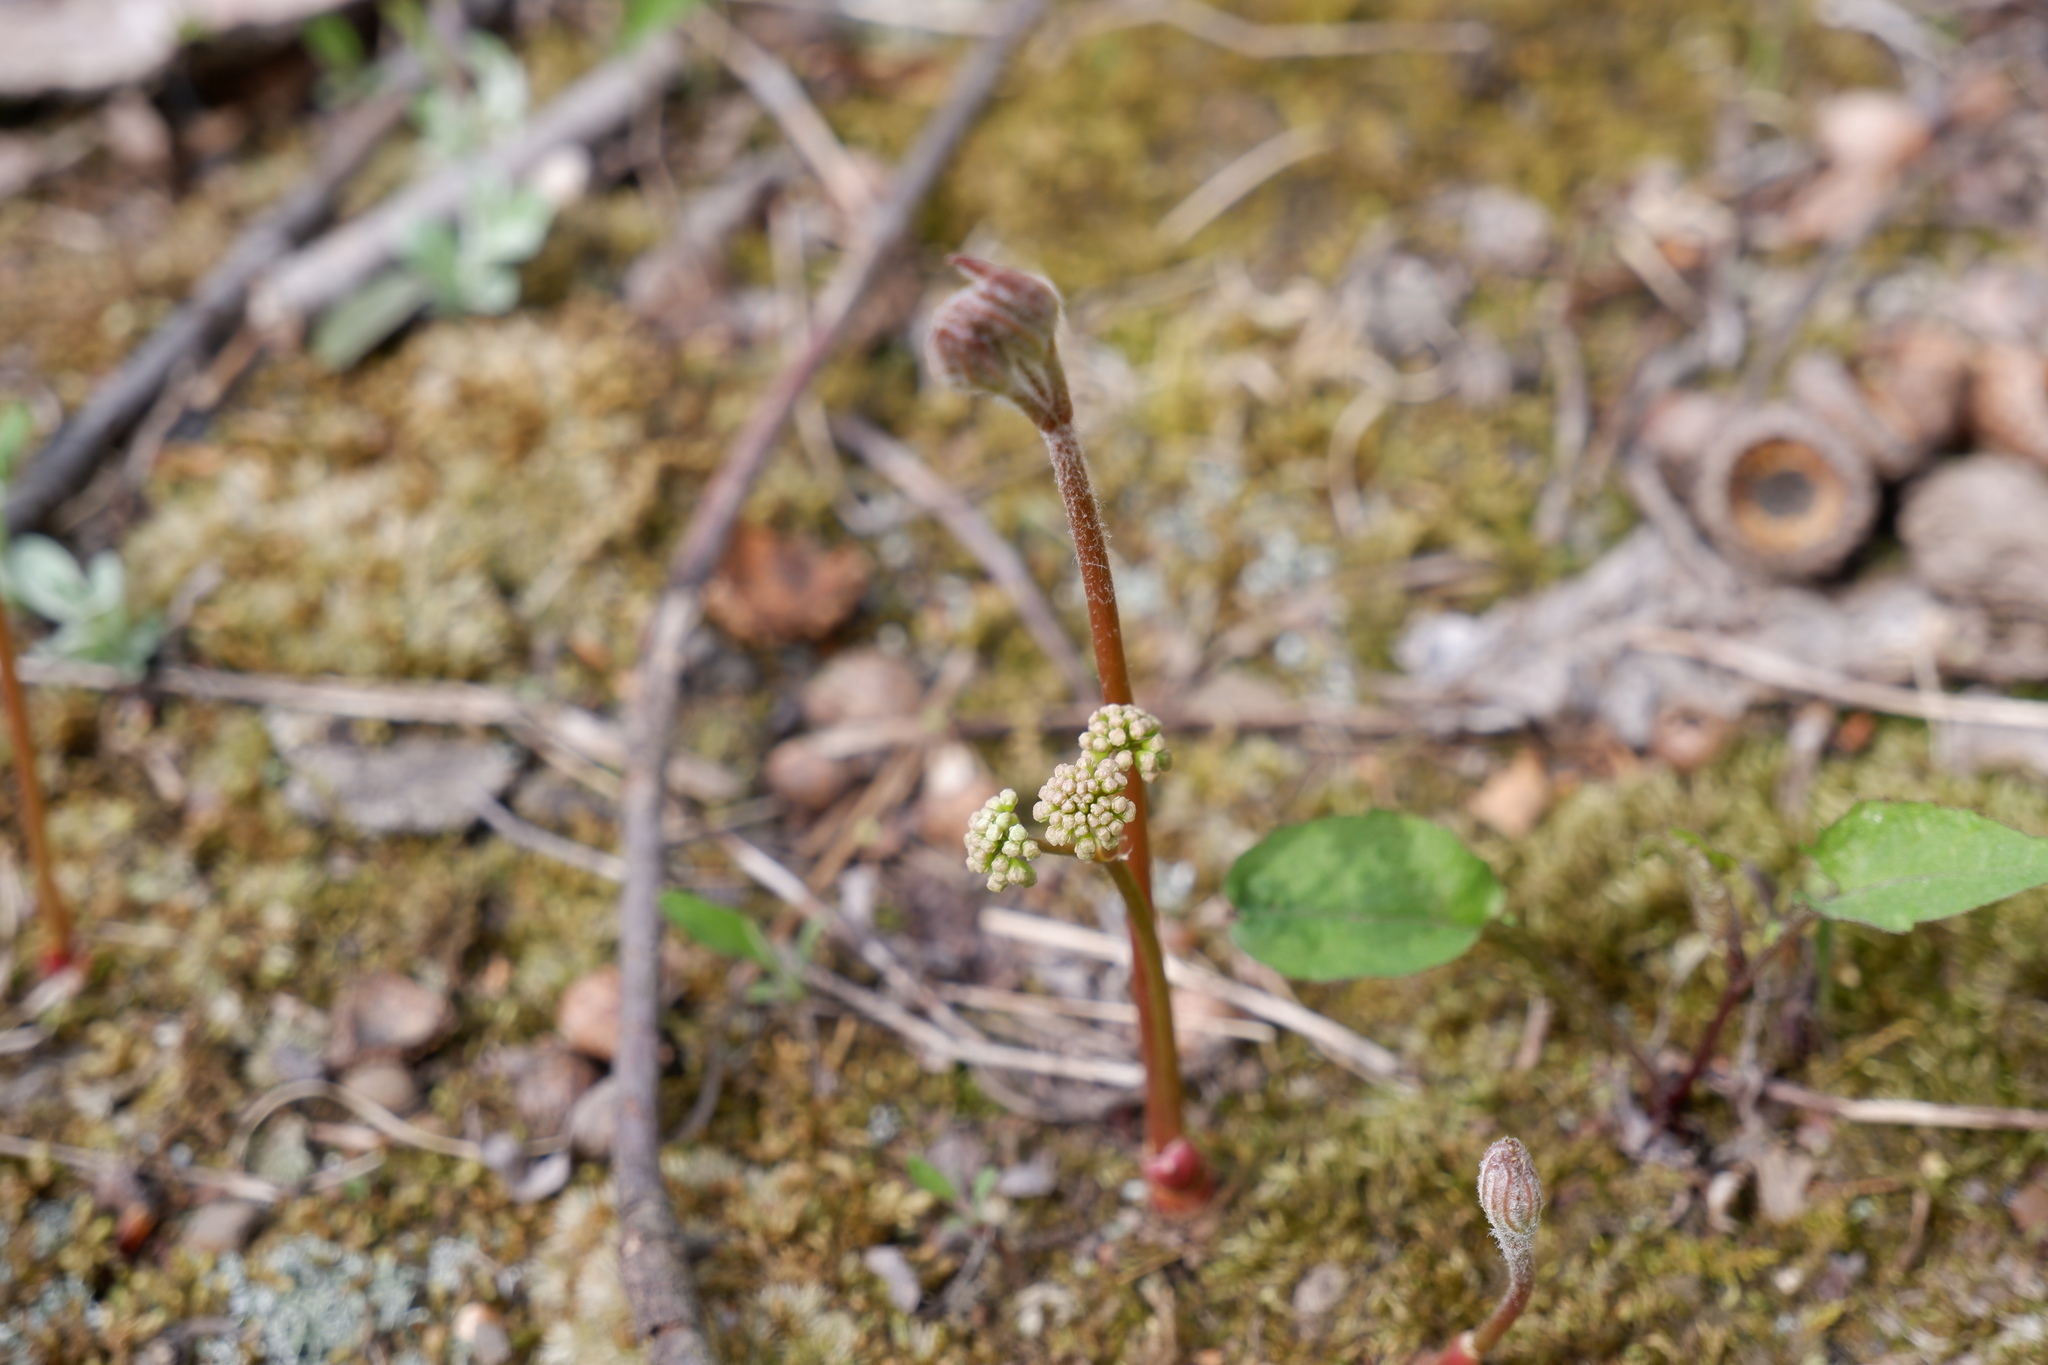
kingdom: Plantae
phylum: Tracheophyta
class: Magnoliopsida
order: Apiales
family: Araliaceae
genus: Aralia
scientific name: Aralia nudicaulis
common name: Wild sarsaparilla
